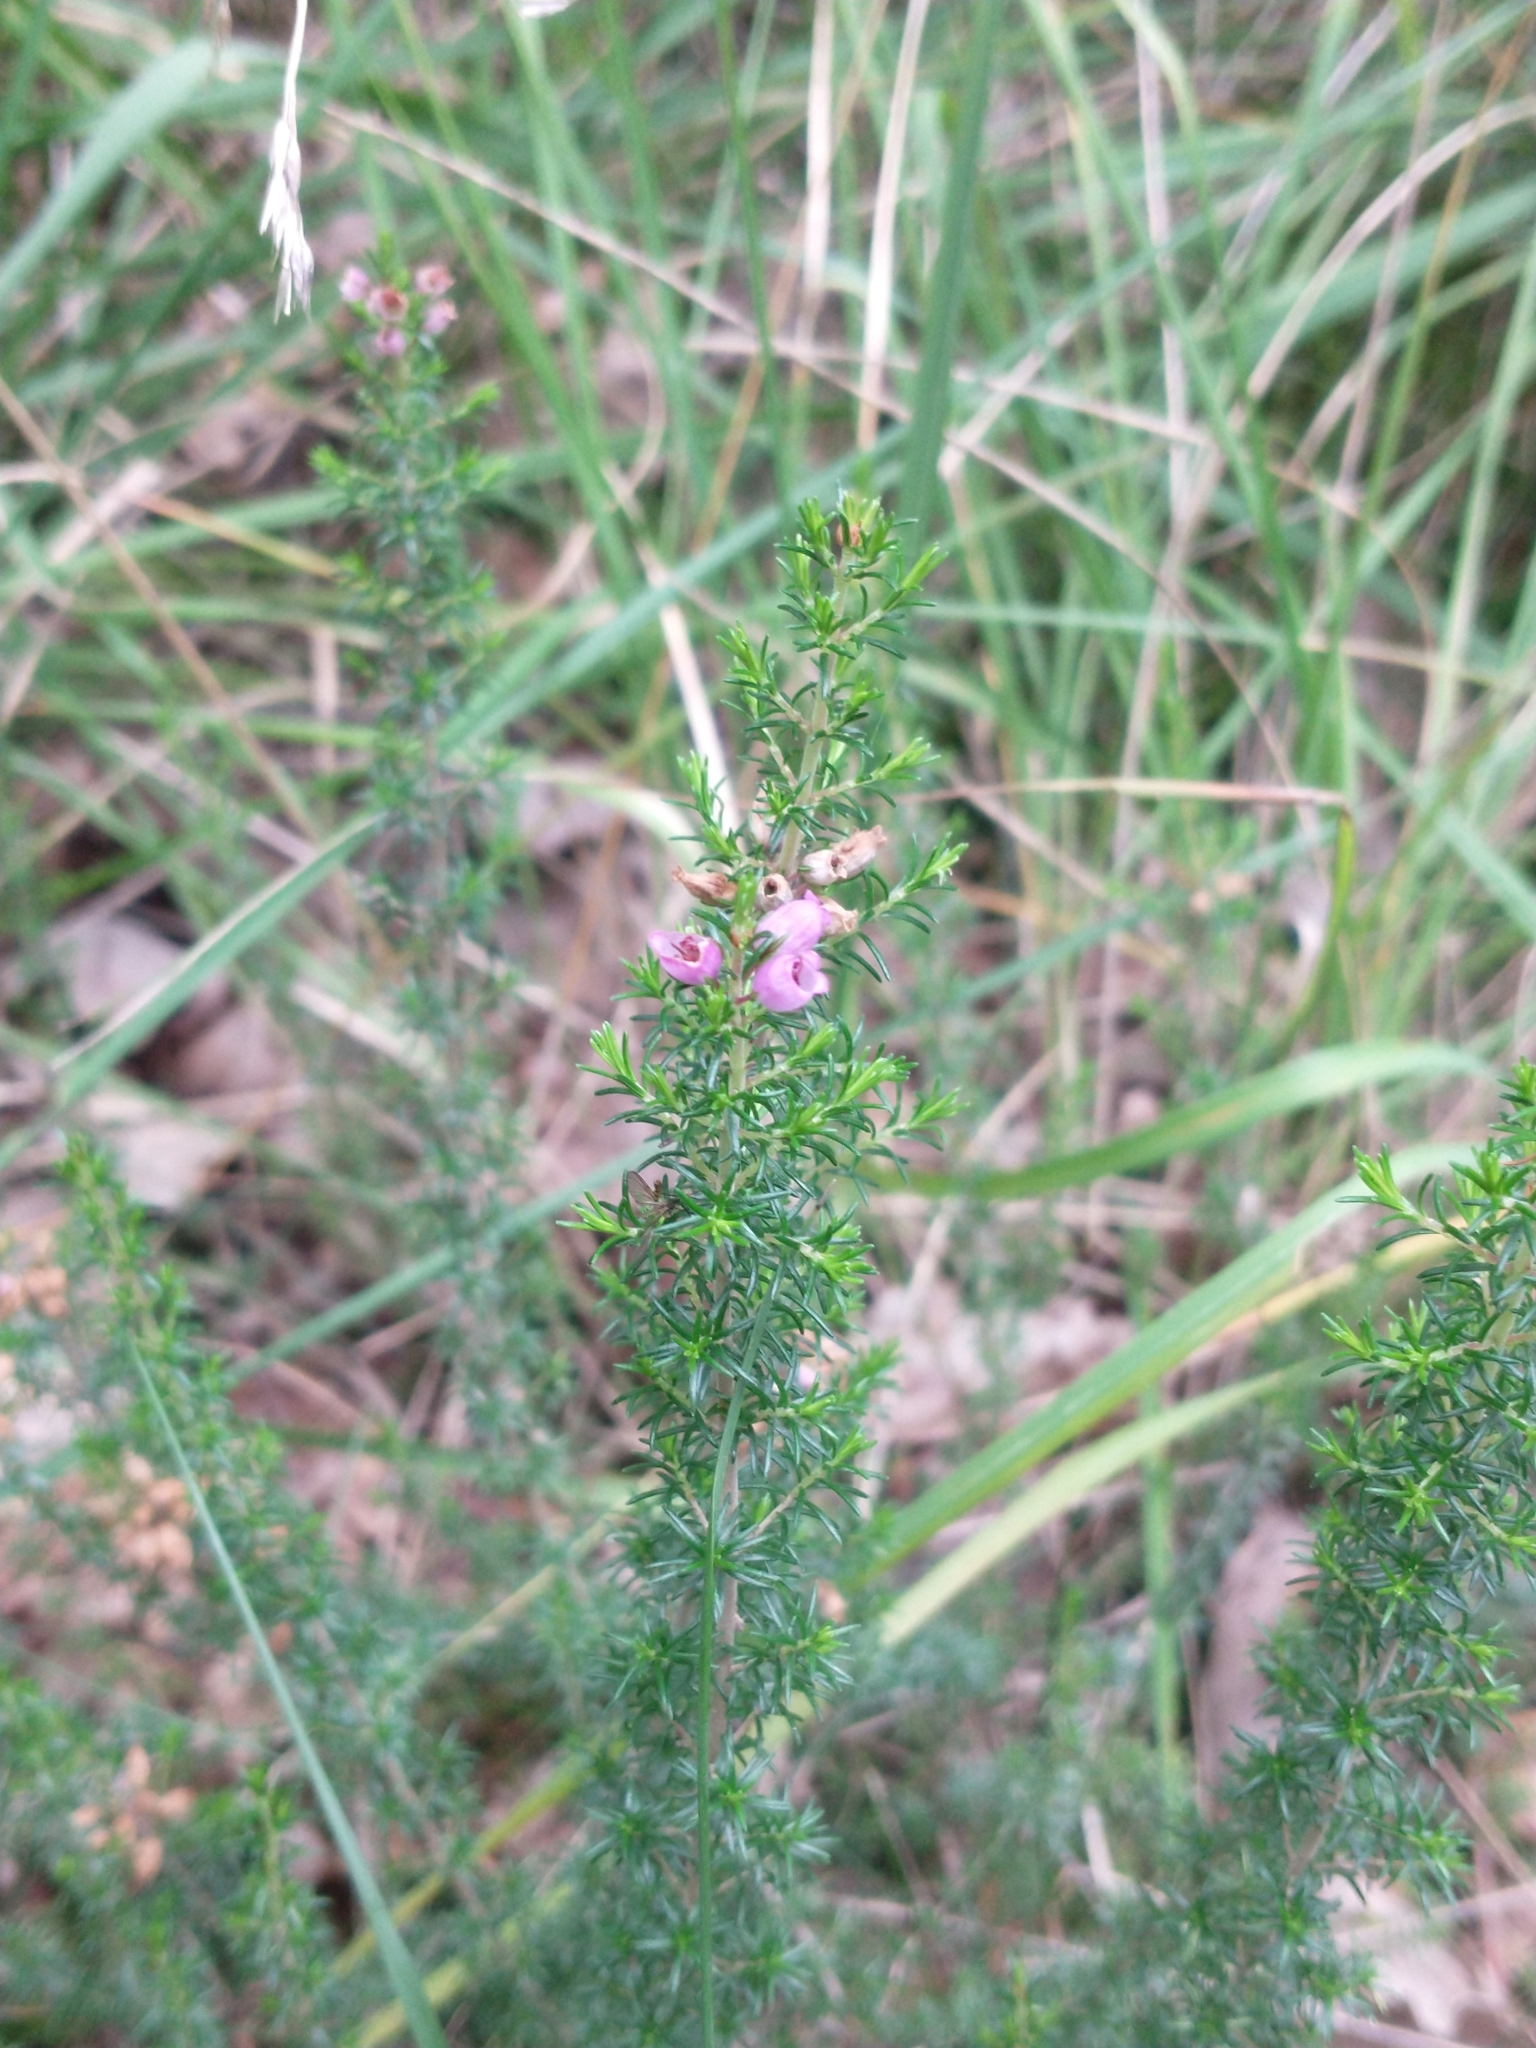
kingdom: Plantae
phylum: Tracheophyta
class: Magnoliopsida
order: Ericales
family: Ericaceae
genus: Erica
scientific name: Erica cinerea
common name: Bell heather
